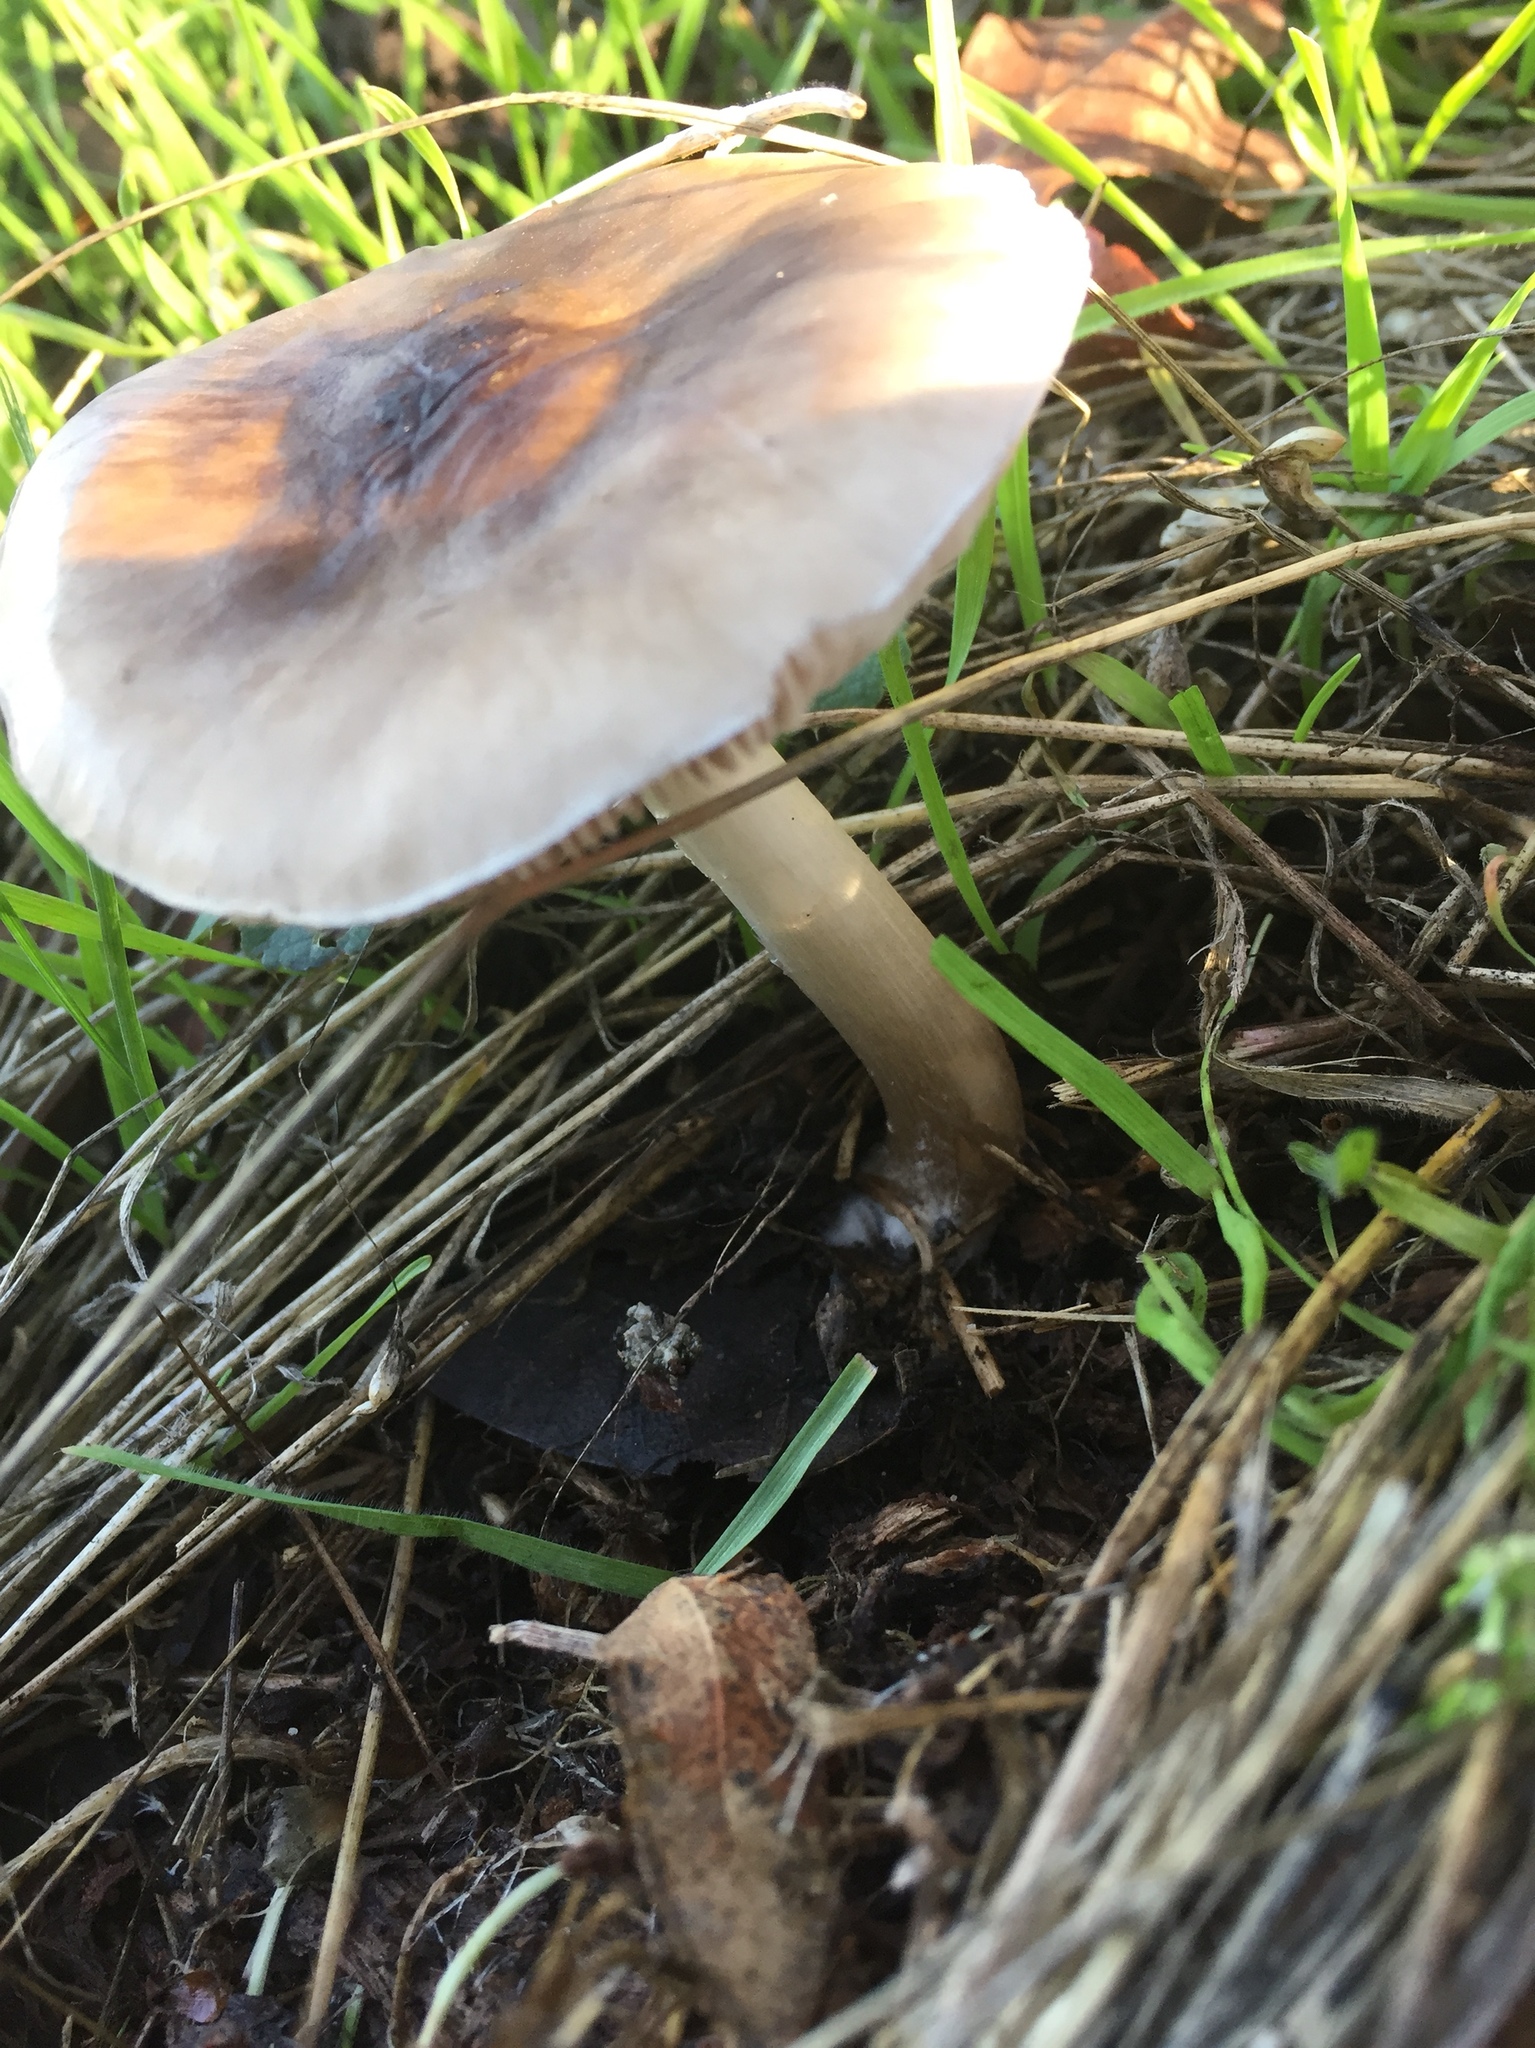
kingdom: Fungi
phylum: Basidiomycota
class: Agaricomycetes
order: Agaricales
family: Pluteaceae
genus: Volvopluteus
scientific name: Volvopluteus gloiocephalus
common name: Stubble rosegill
